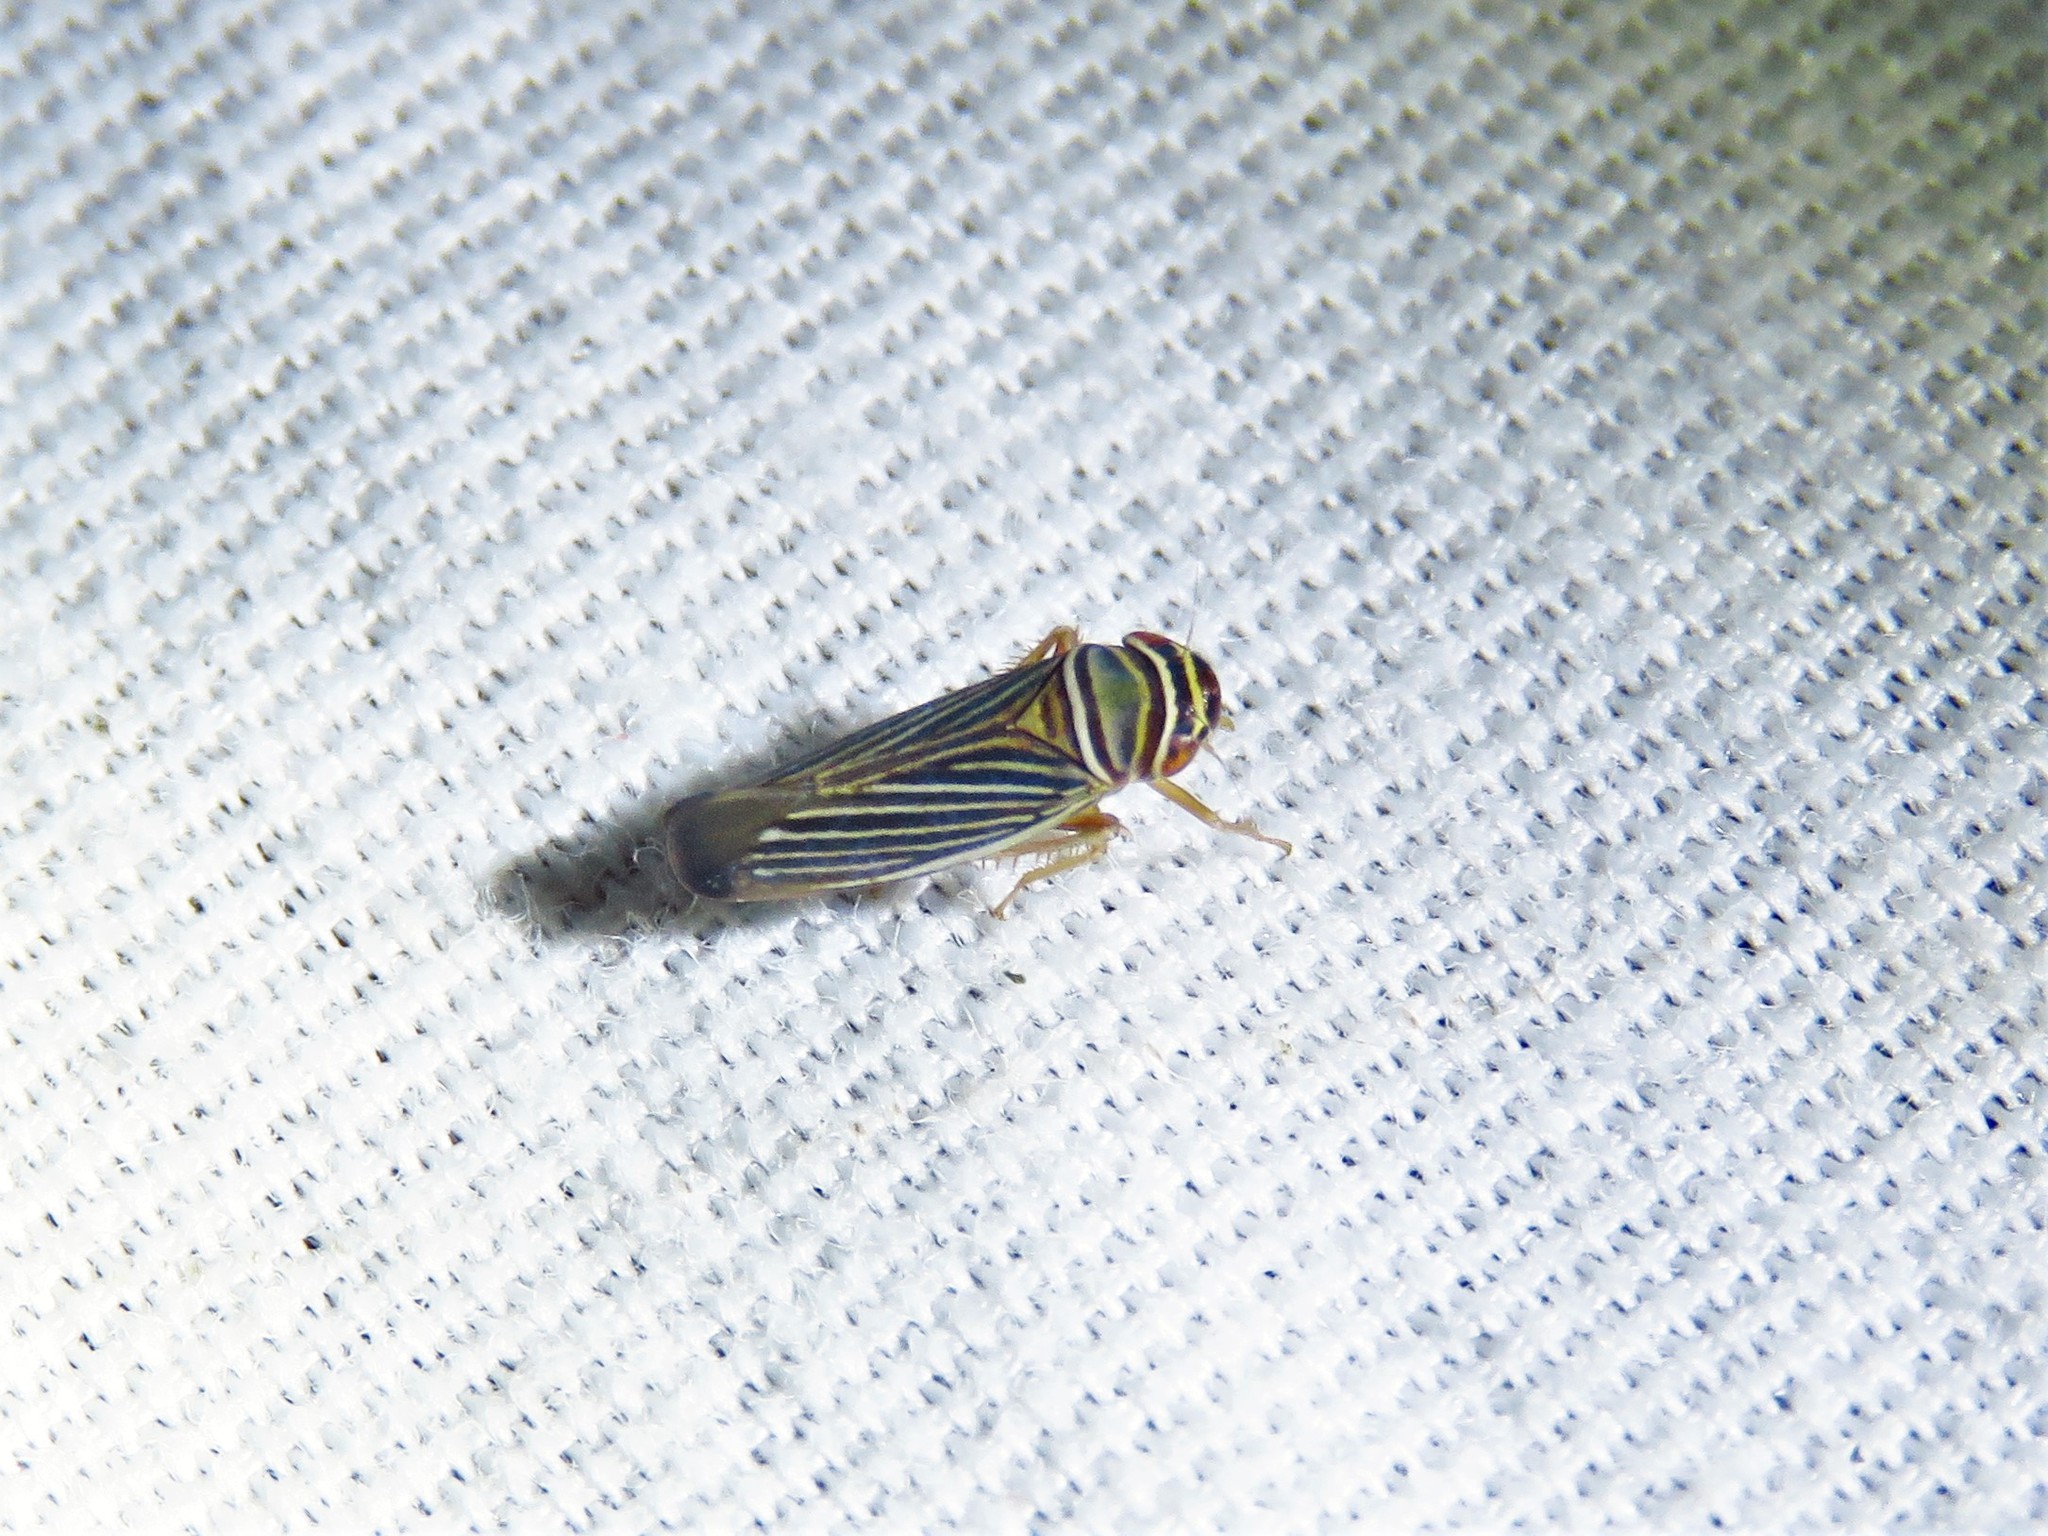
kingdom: Animalia
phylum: Arthropoda
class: Insecta
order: Hemiptera
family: Cicadellidae
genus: Tylozygus
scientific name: Tylozygus bifidus
